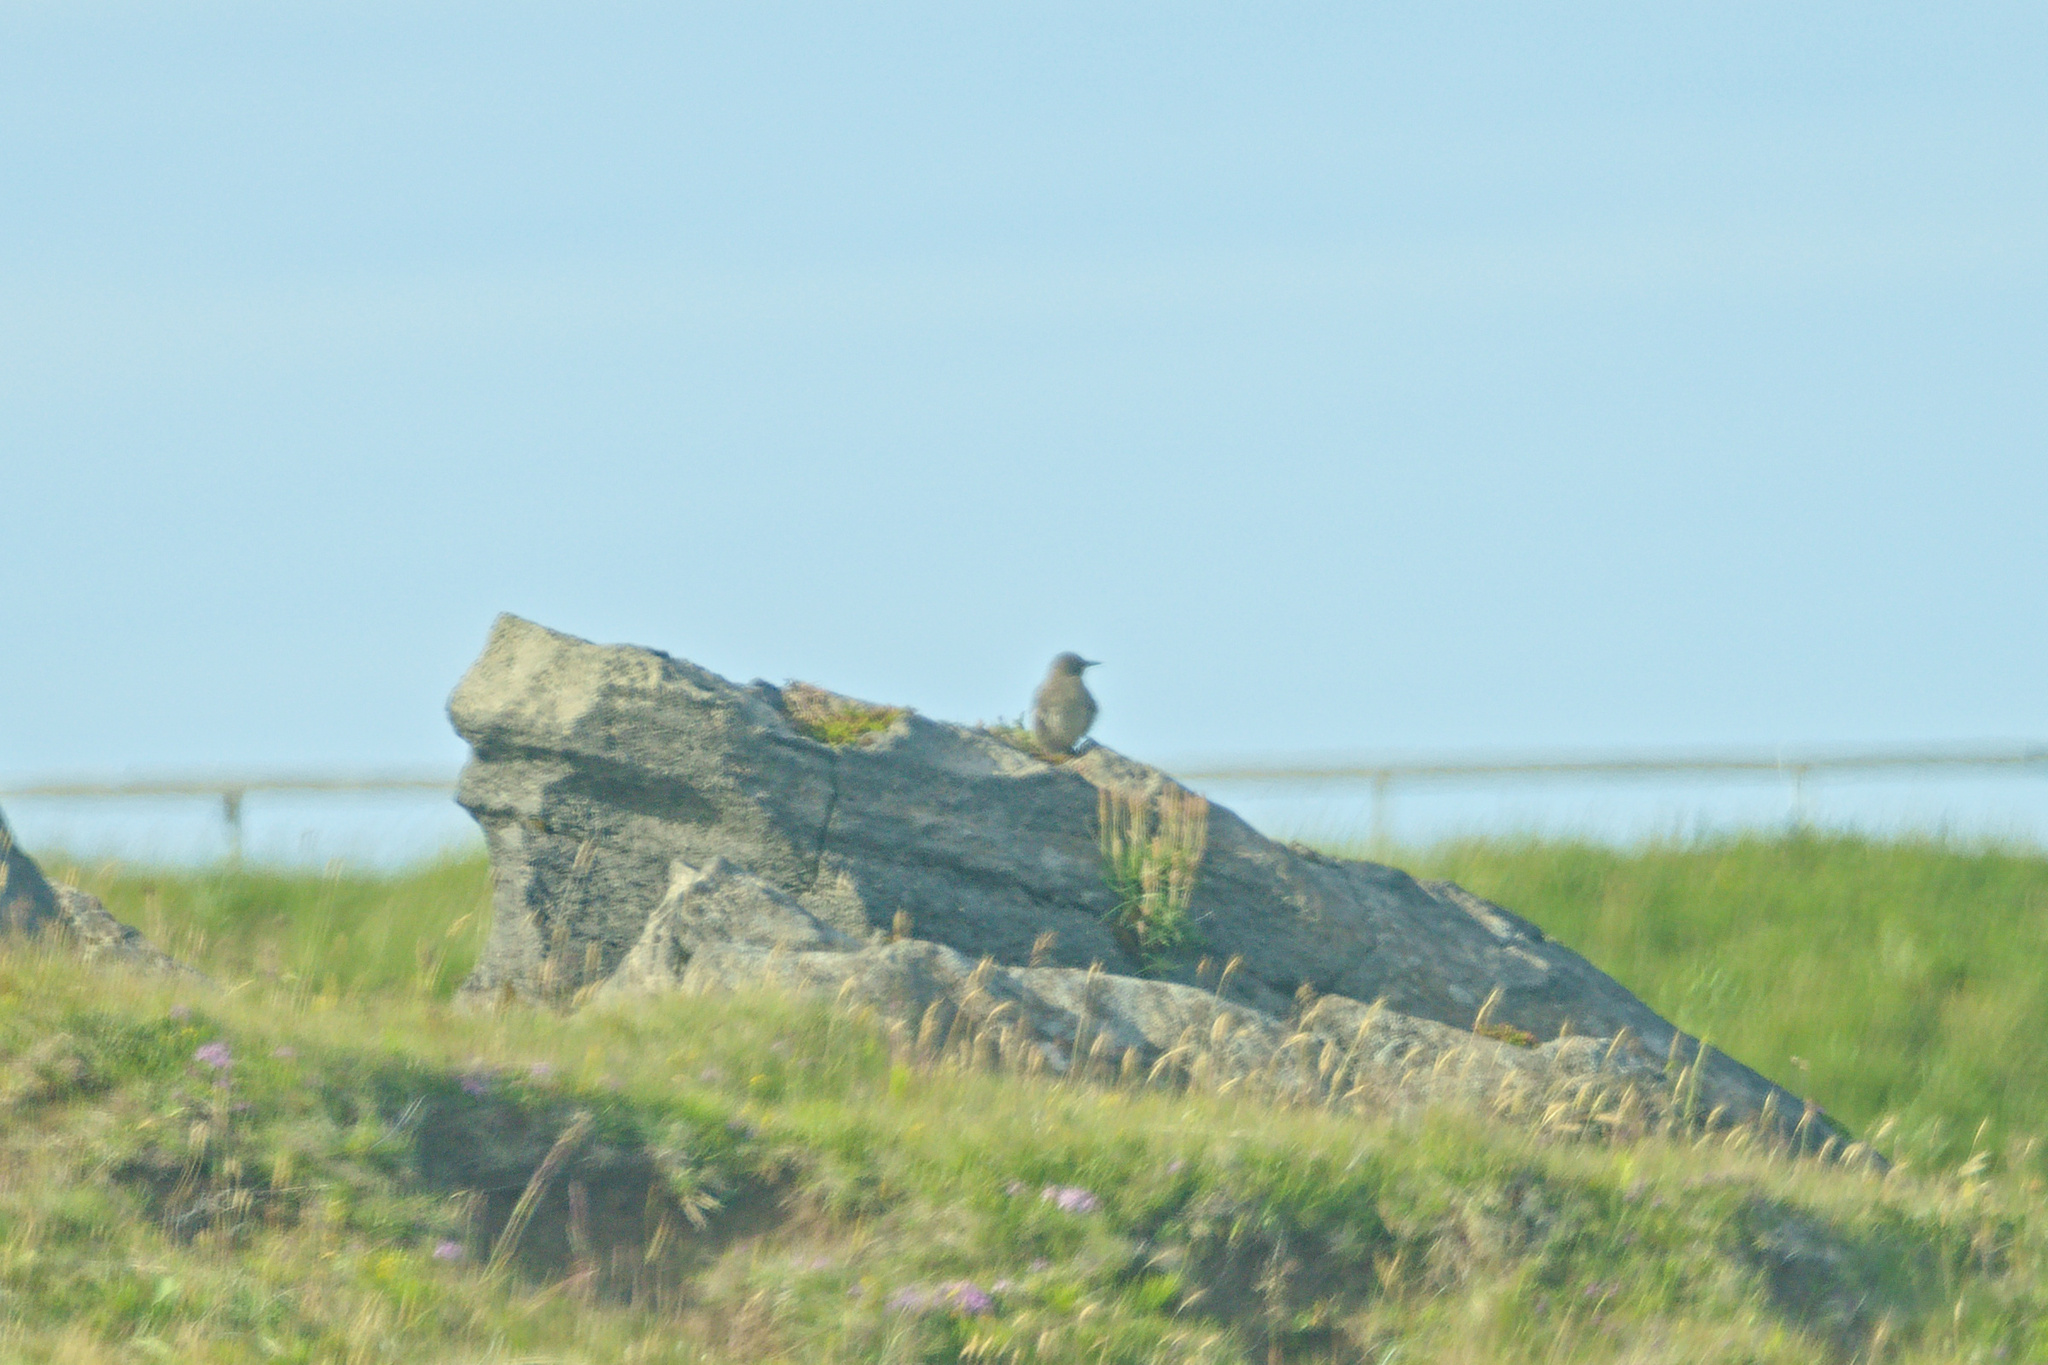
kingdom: Animalia
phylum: Chordata
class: Aves
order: Passeriformes
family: Turdidae
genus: Turdus
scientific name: Turdus iliacus
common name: Redwing
